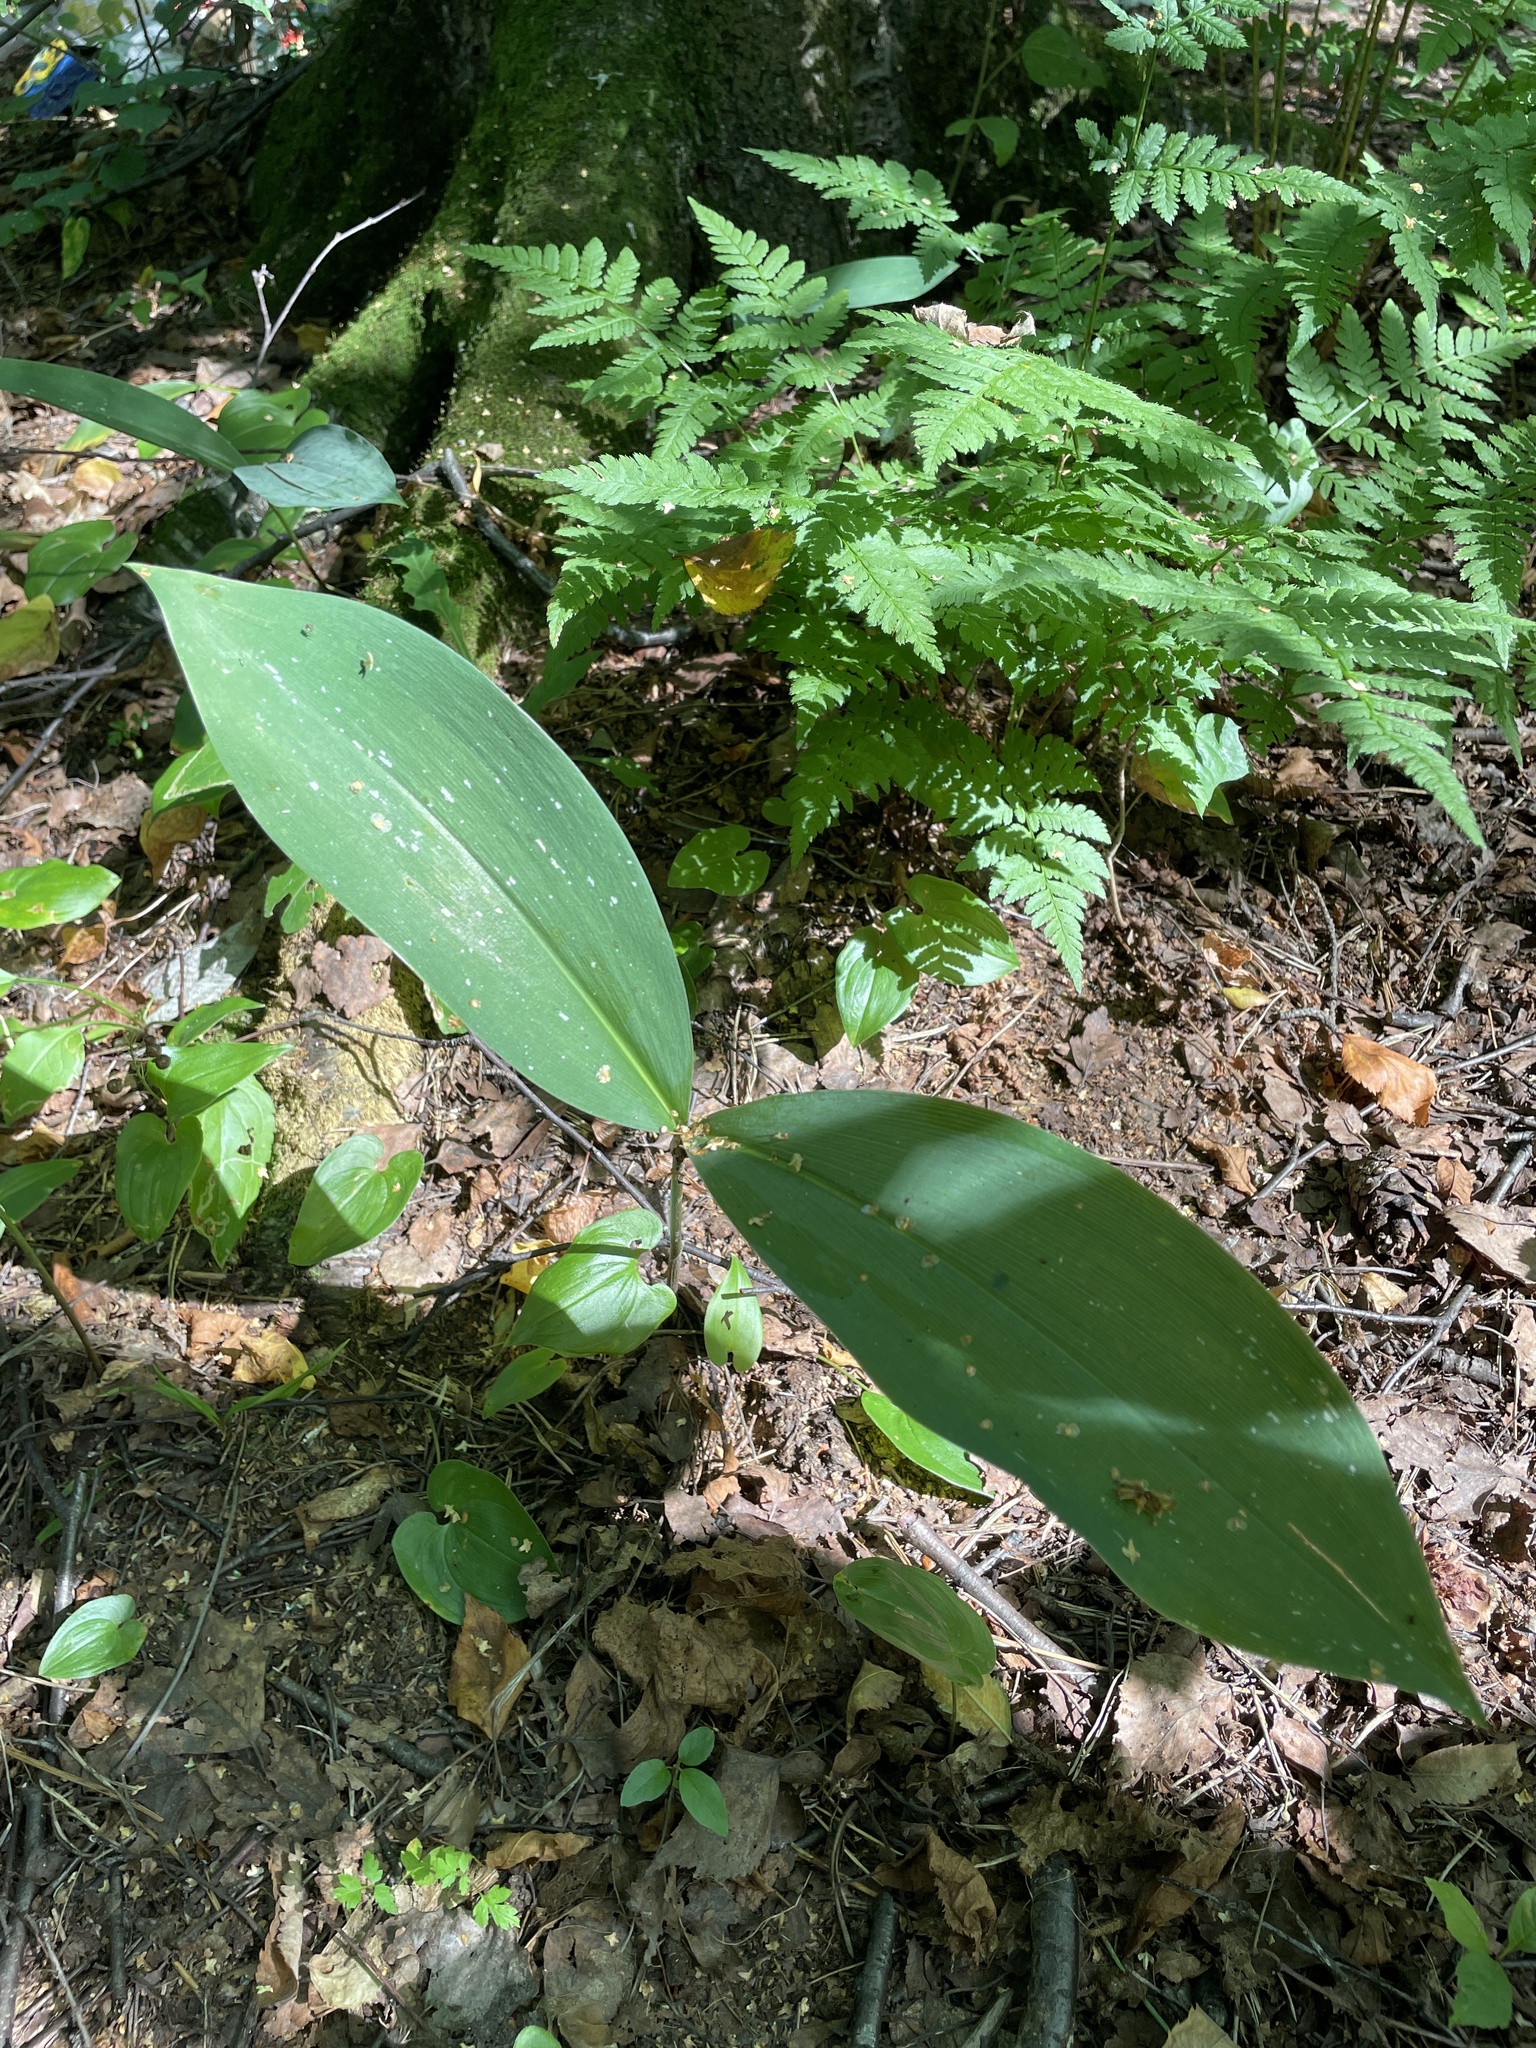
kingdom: Plantae
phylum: Tracheophyta
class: Liliopsida
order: Asparagales
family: Asparagaceae
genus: Convallaria
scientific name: Convallaria majalis
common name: Lily-of-the-valley
